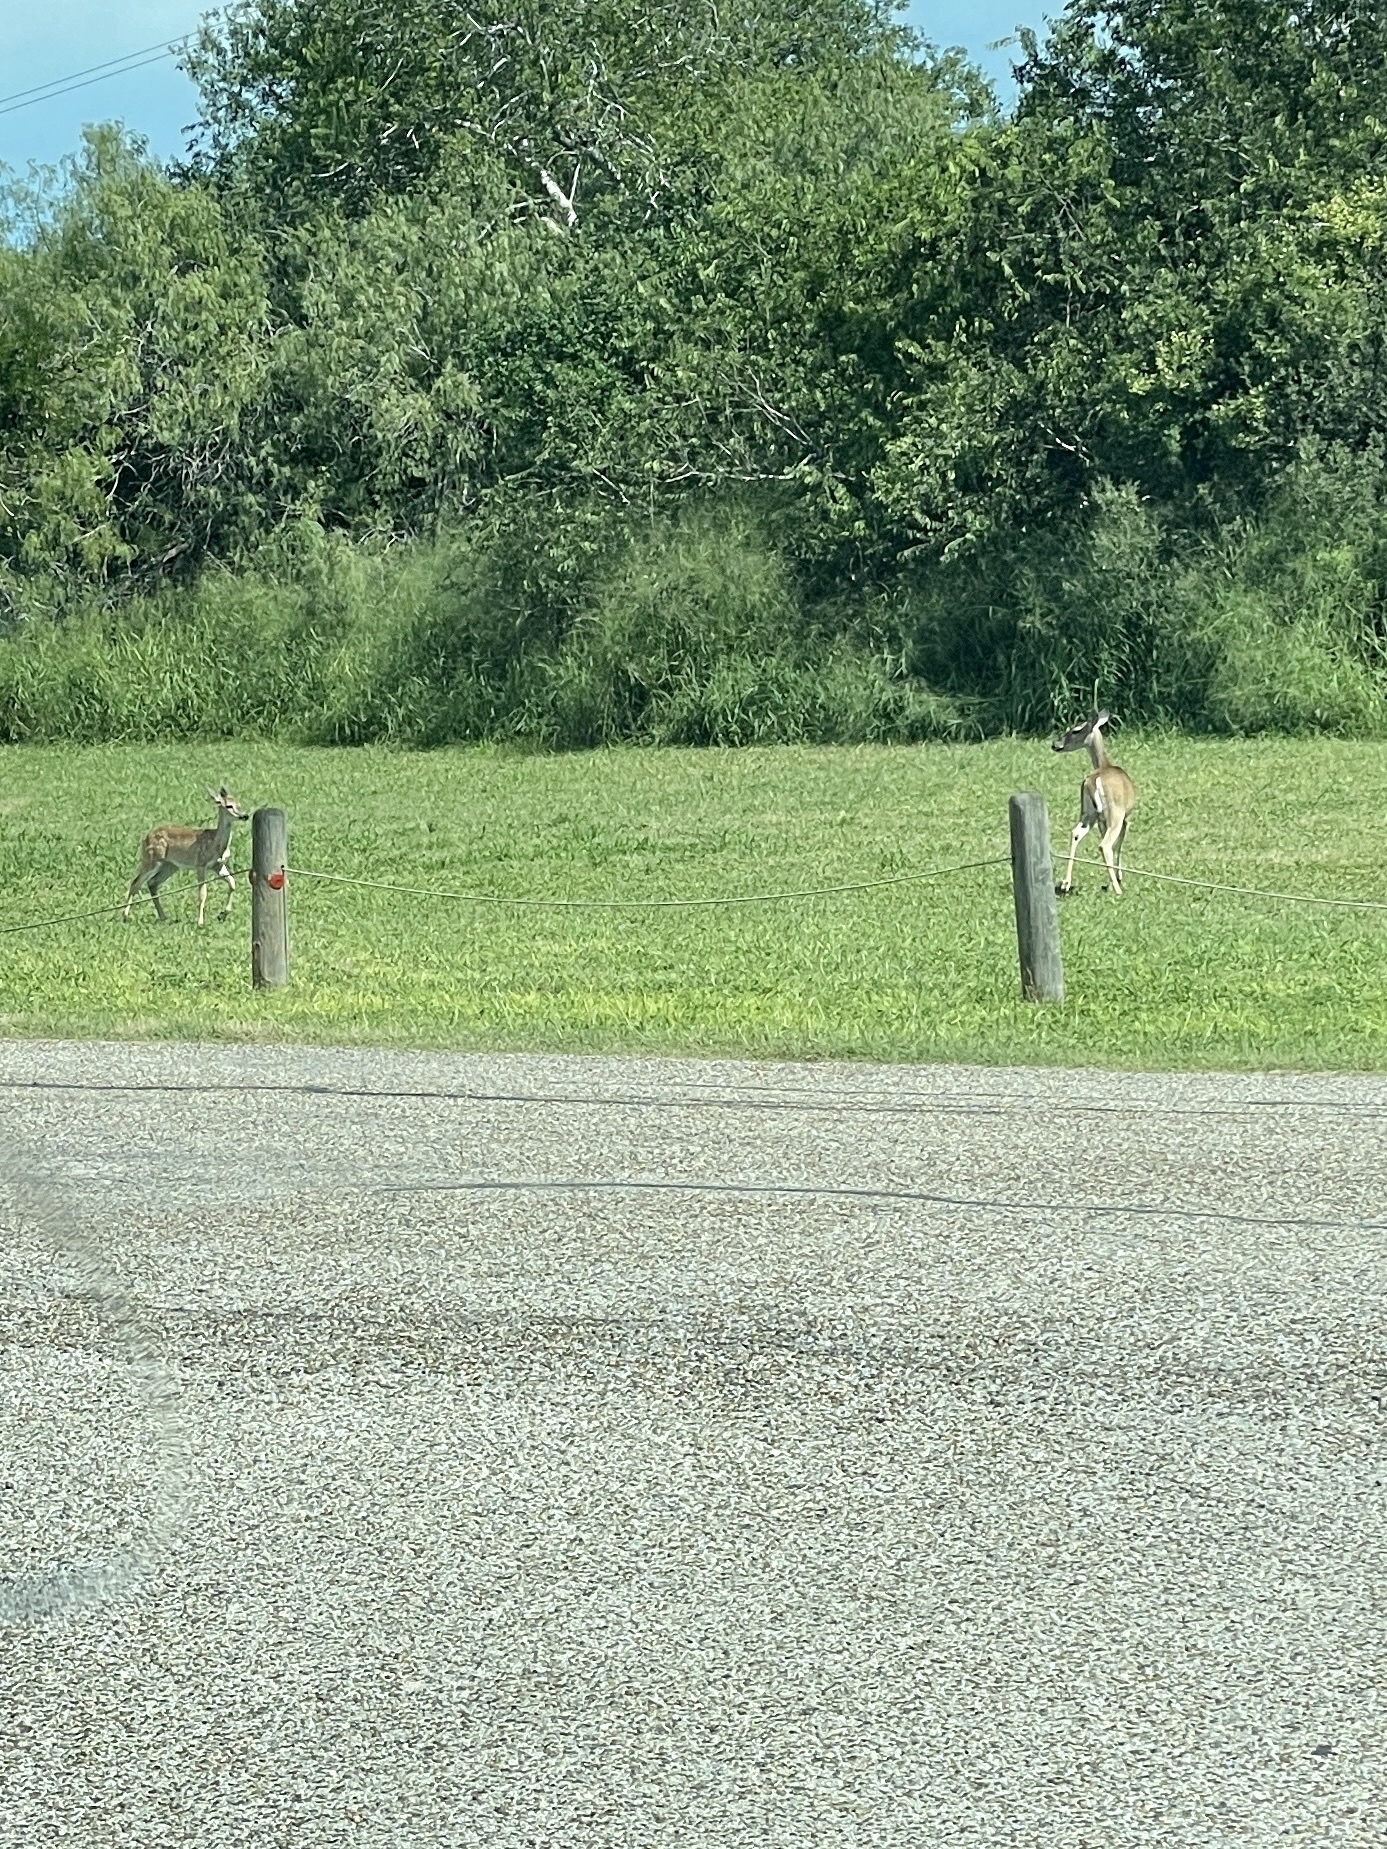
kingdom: Animalia
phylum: Chordata
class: Mammalia
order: Artiodactyla
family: Cervidae
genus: Odocoileus
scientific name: Odocoileus virginianus
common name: White-tailed deer
